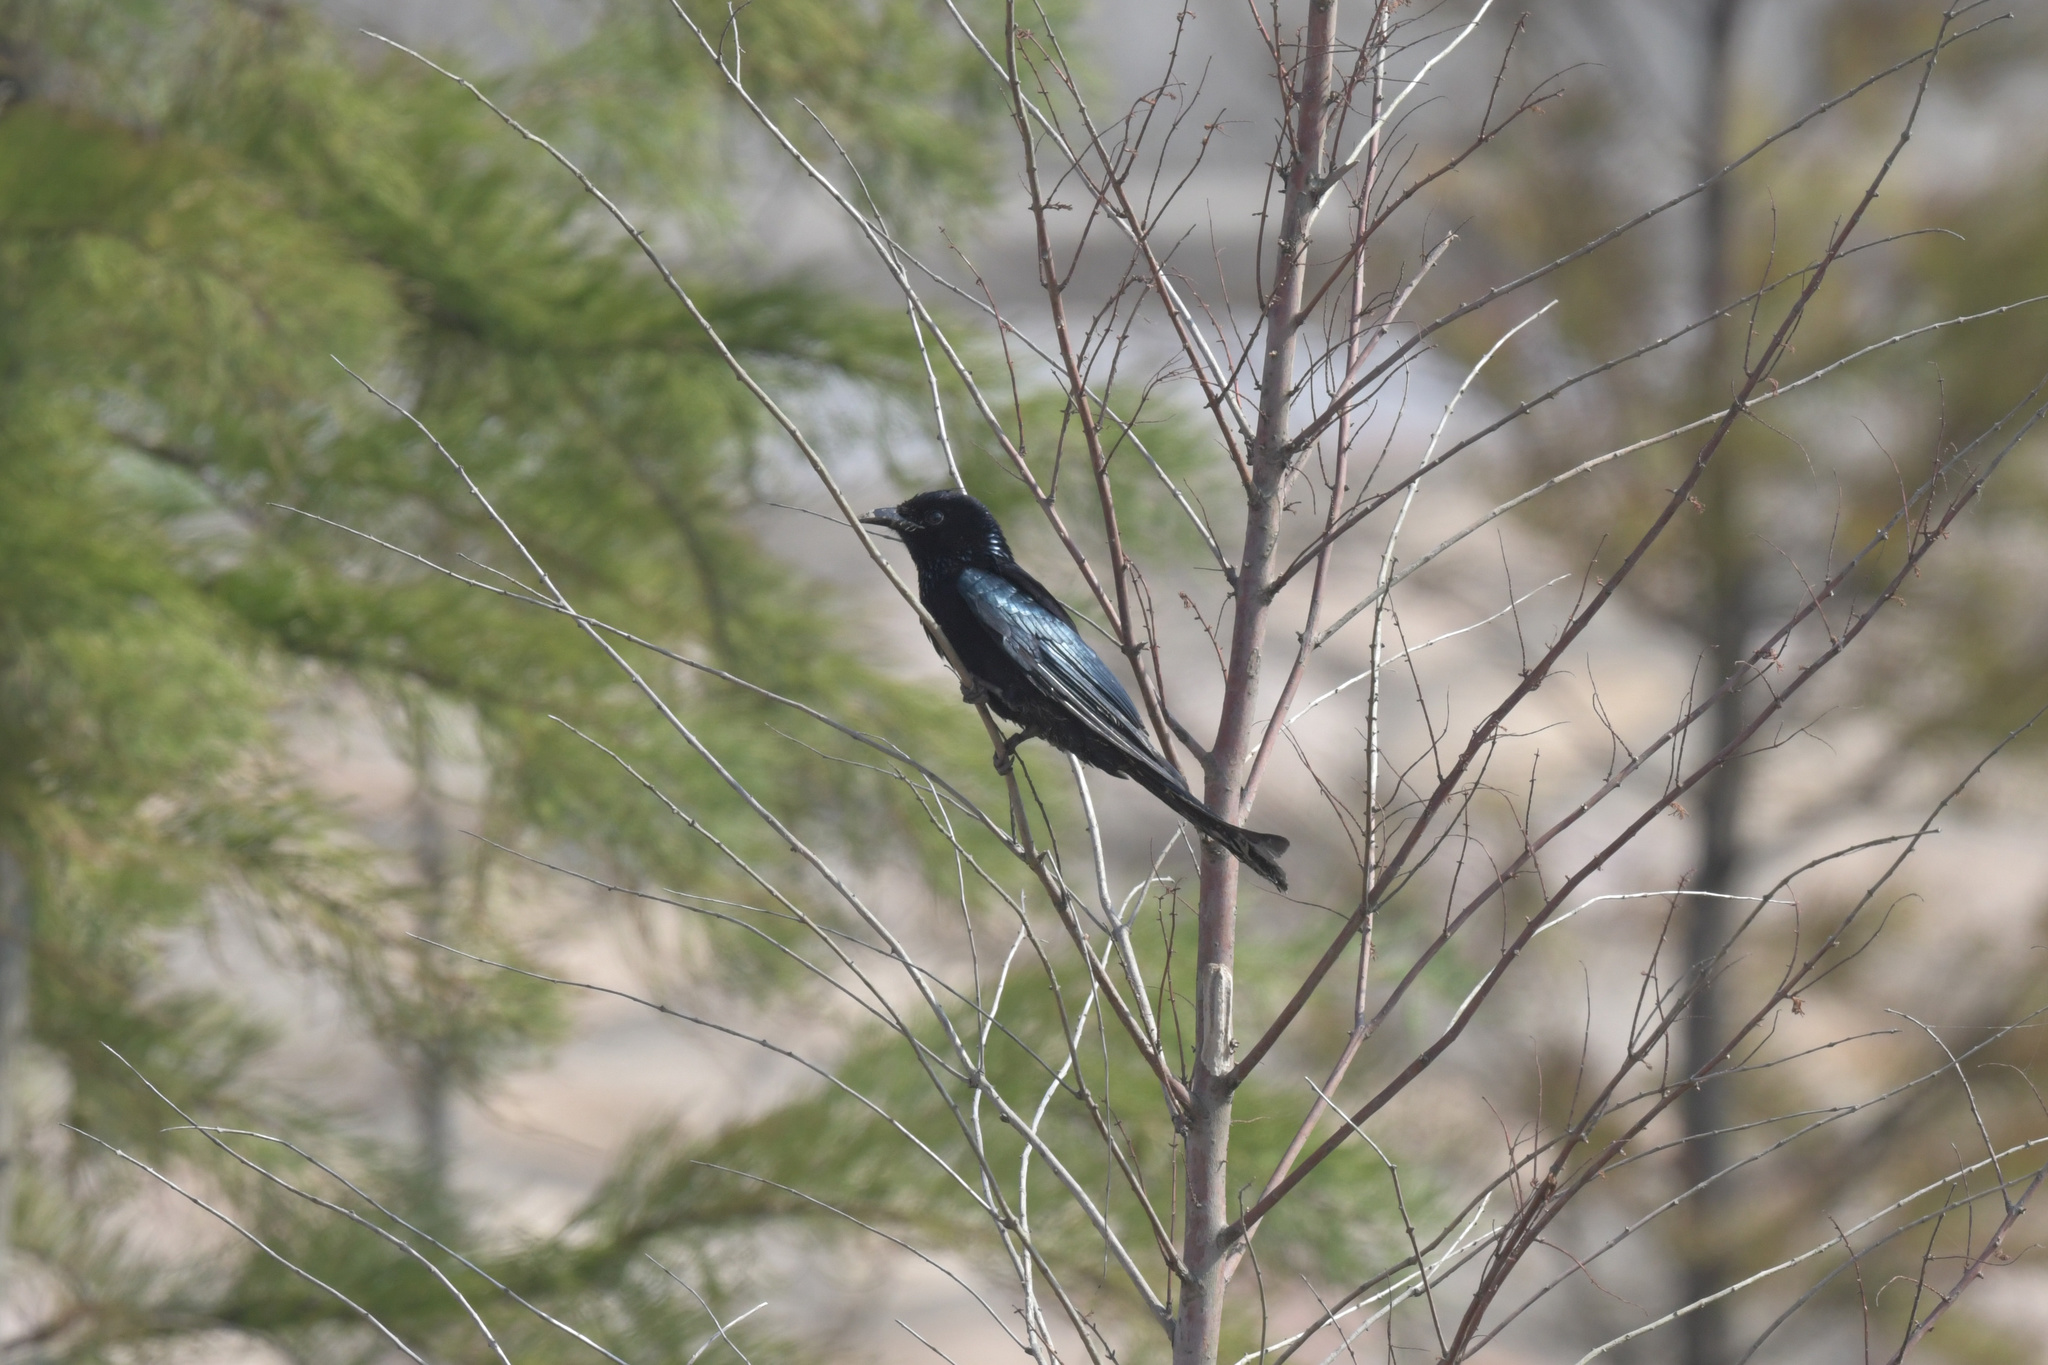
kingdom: Animalia
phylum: Chordata
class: Aves
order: Passeriformes
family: Dicruridae
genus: Dicrurus
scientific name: Dicrurus hottentottus
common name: Hair-crested drongo
